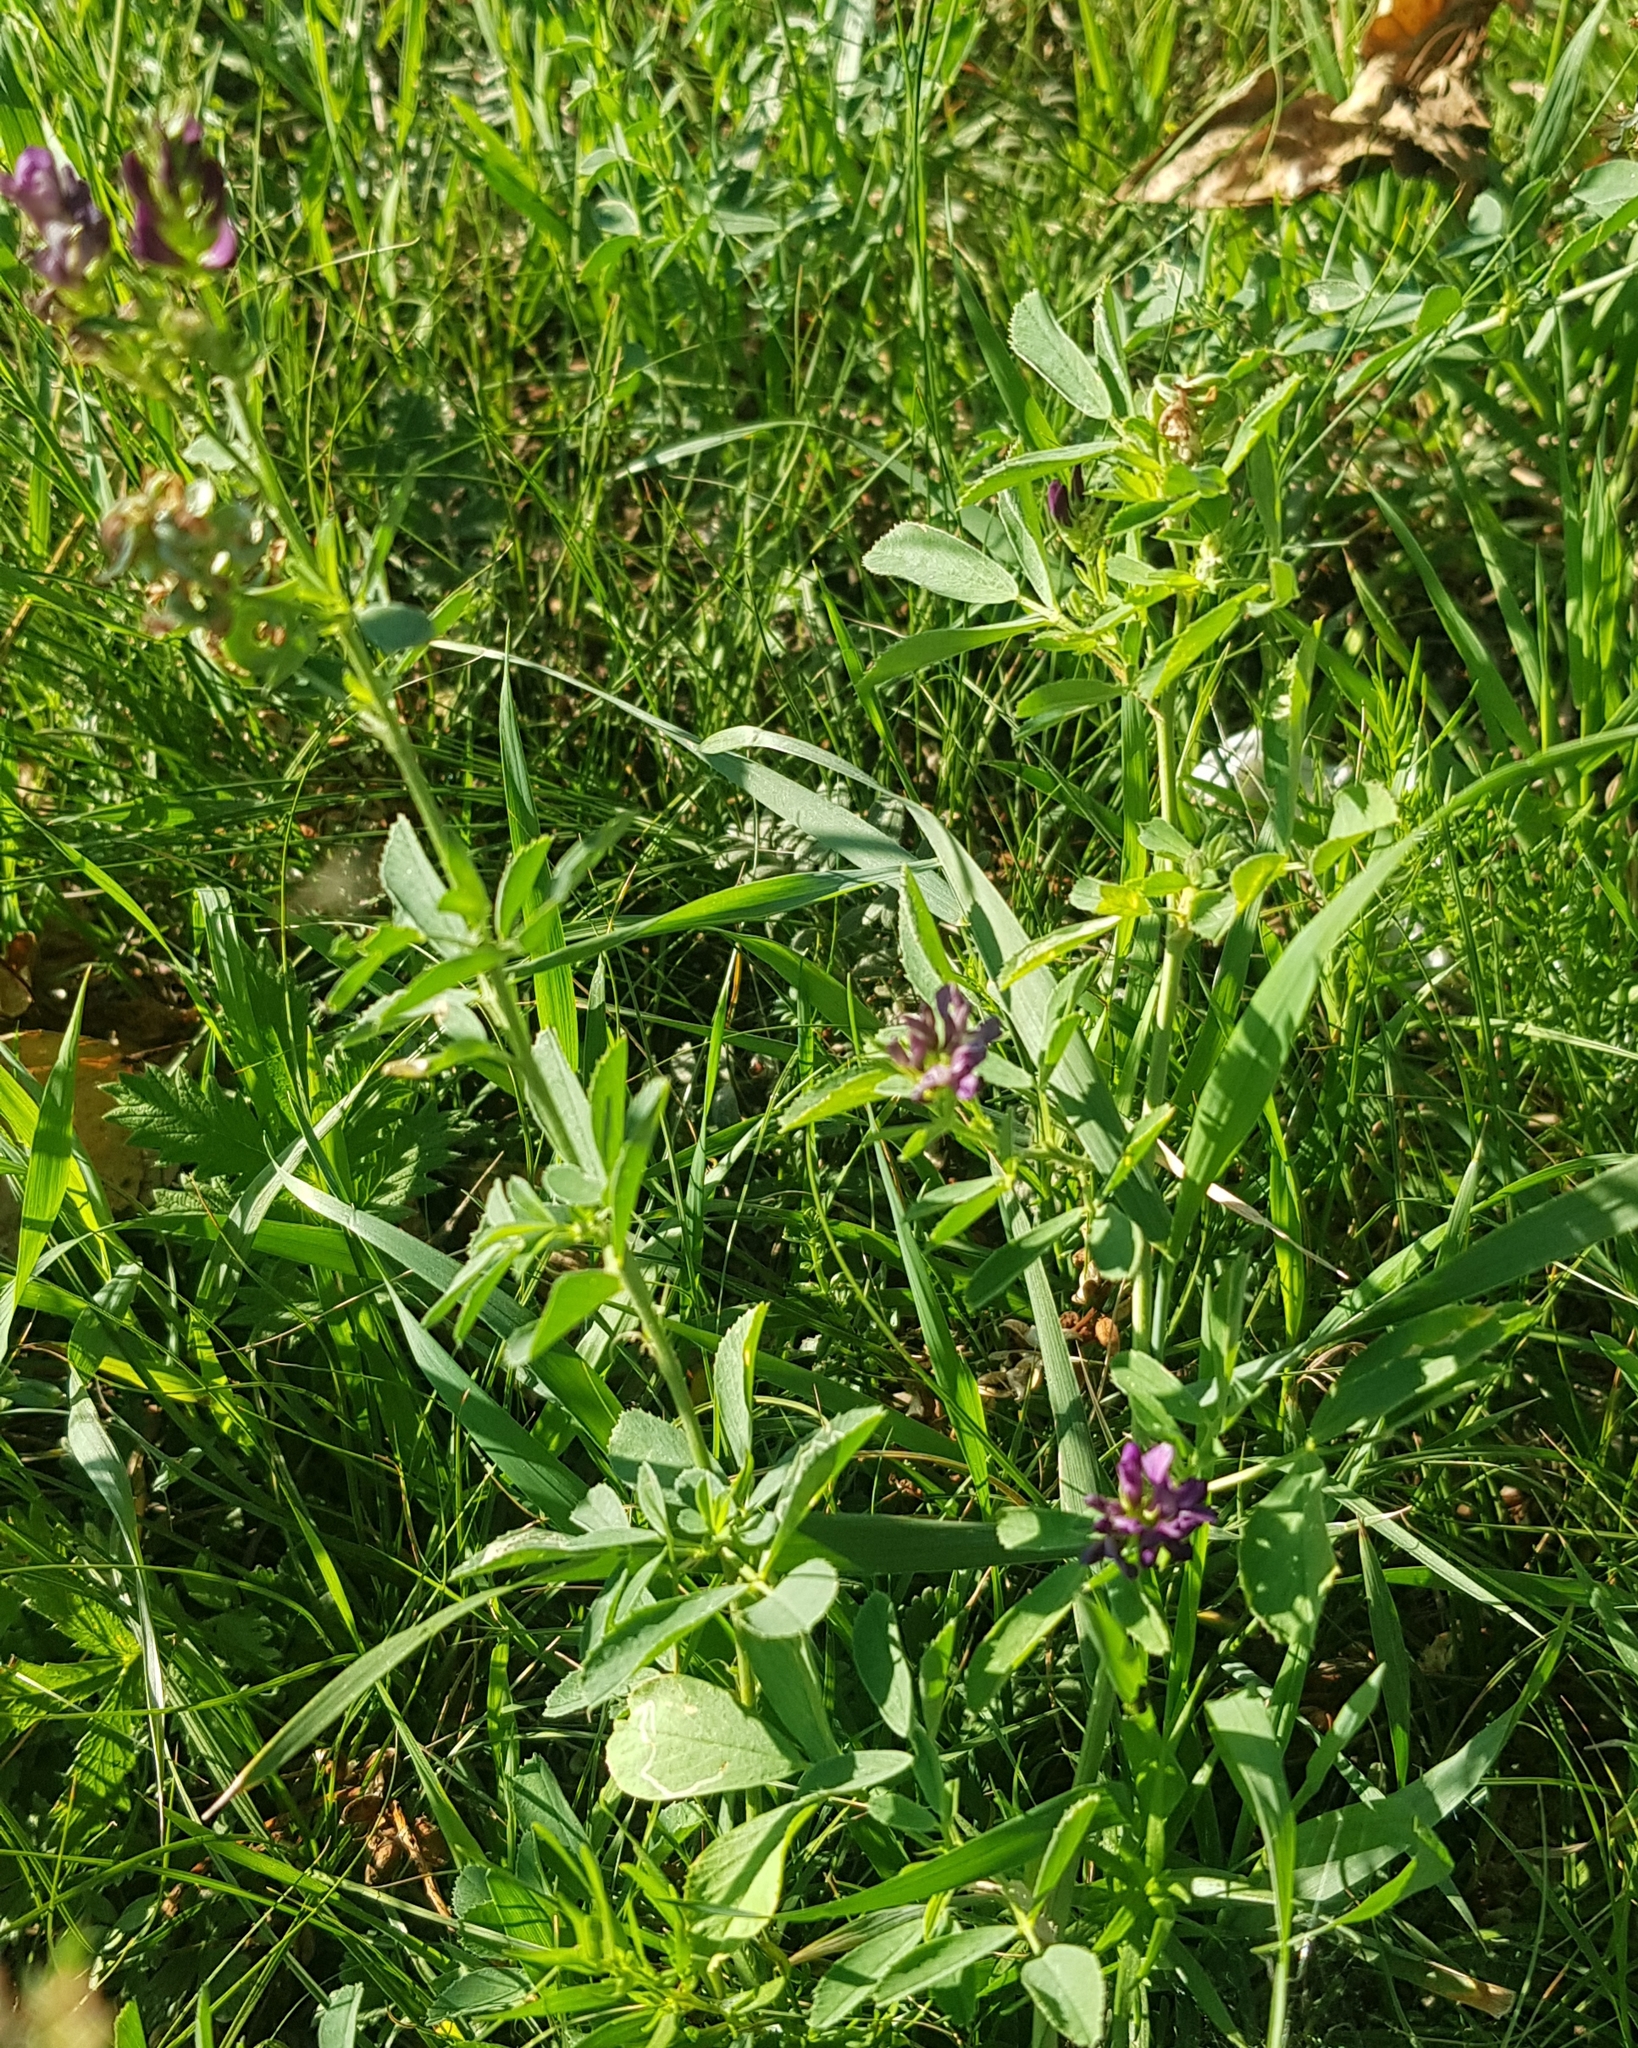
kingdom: Plantae
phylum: Tracheophyta
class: Magnoliopsida
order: Fabales
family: Fabaceae
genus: Medicago
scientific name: Medicago sativa
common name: Alfalfa
